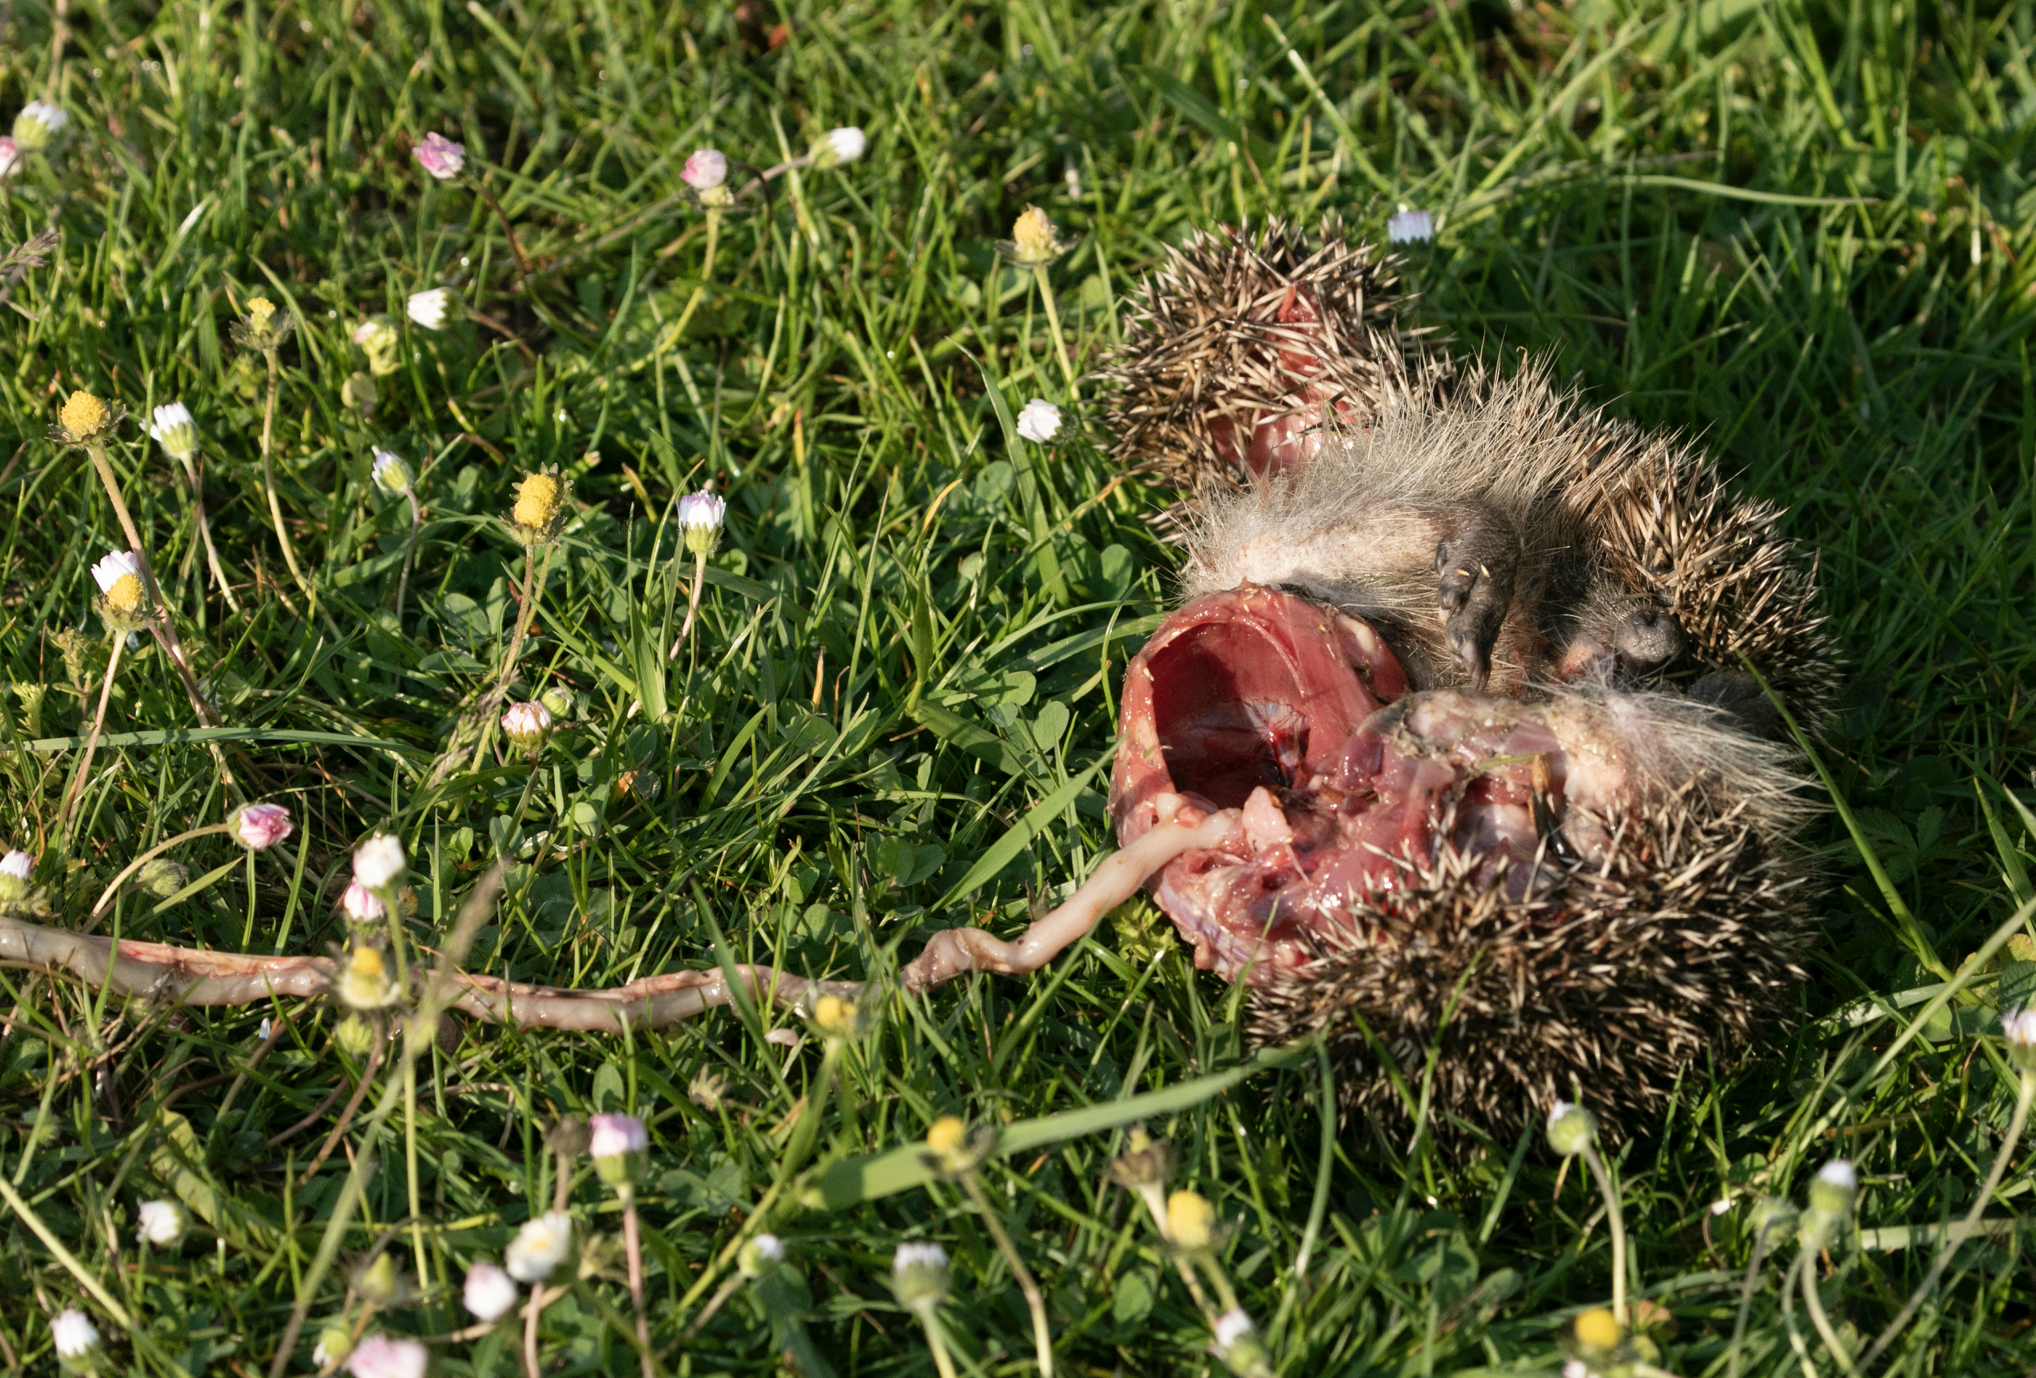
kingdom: Animalia
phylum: Chordata
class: Mammalia
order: Erinaceomorpha
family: Erinaceidae
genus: Erinaceus
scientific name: Erinaceus europaeus
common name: West european hedgehog
